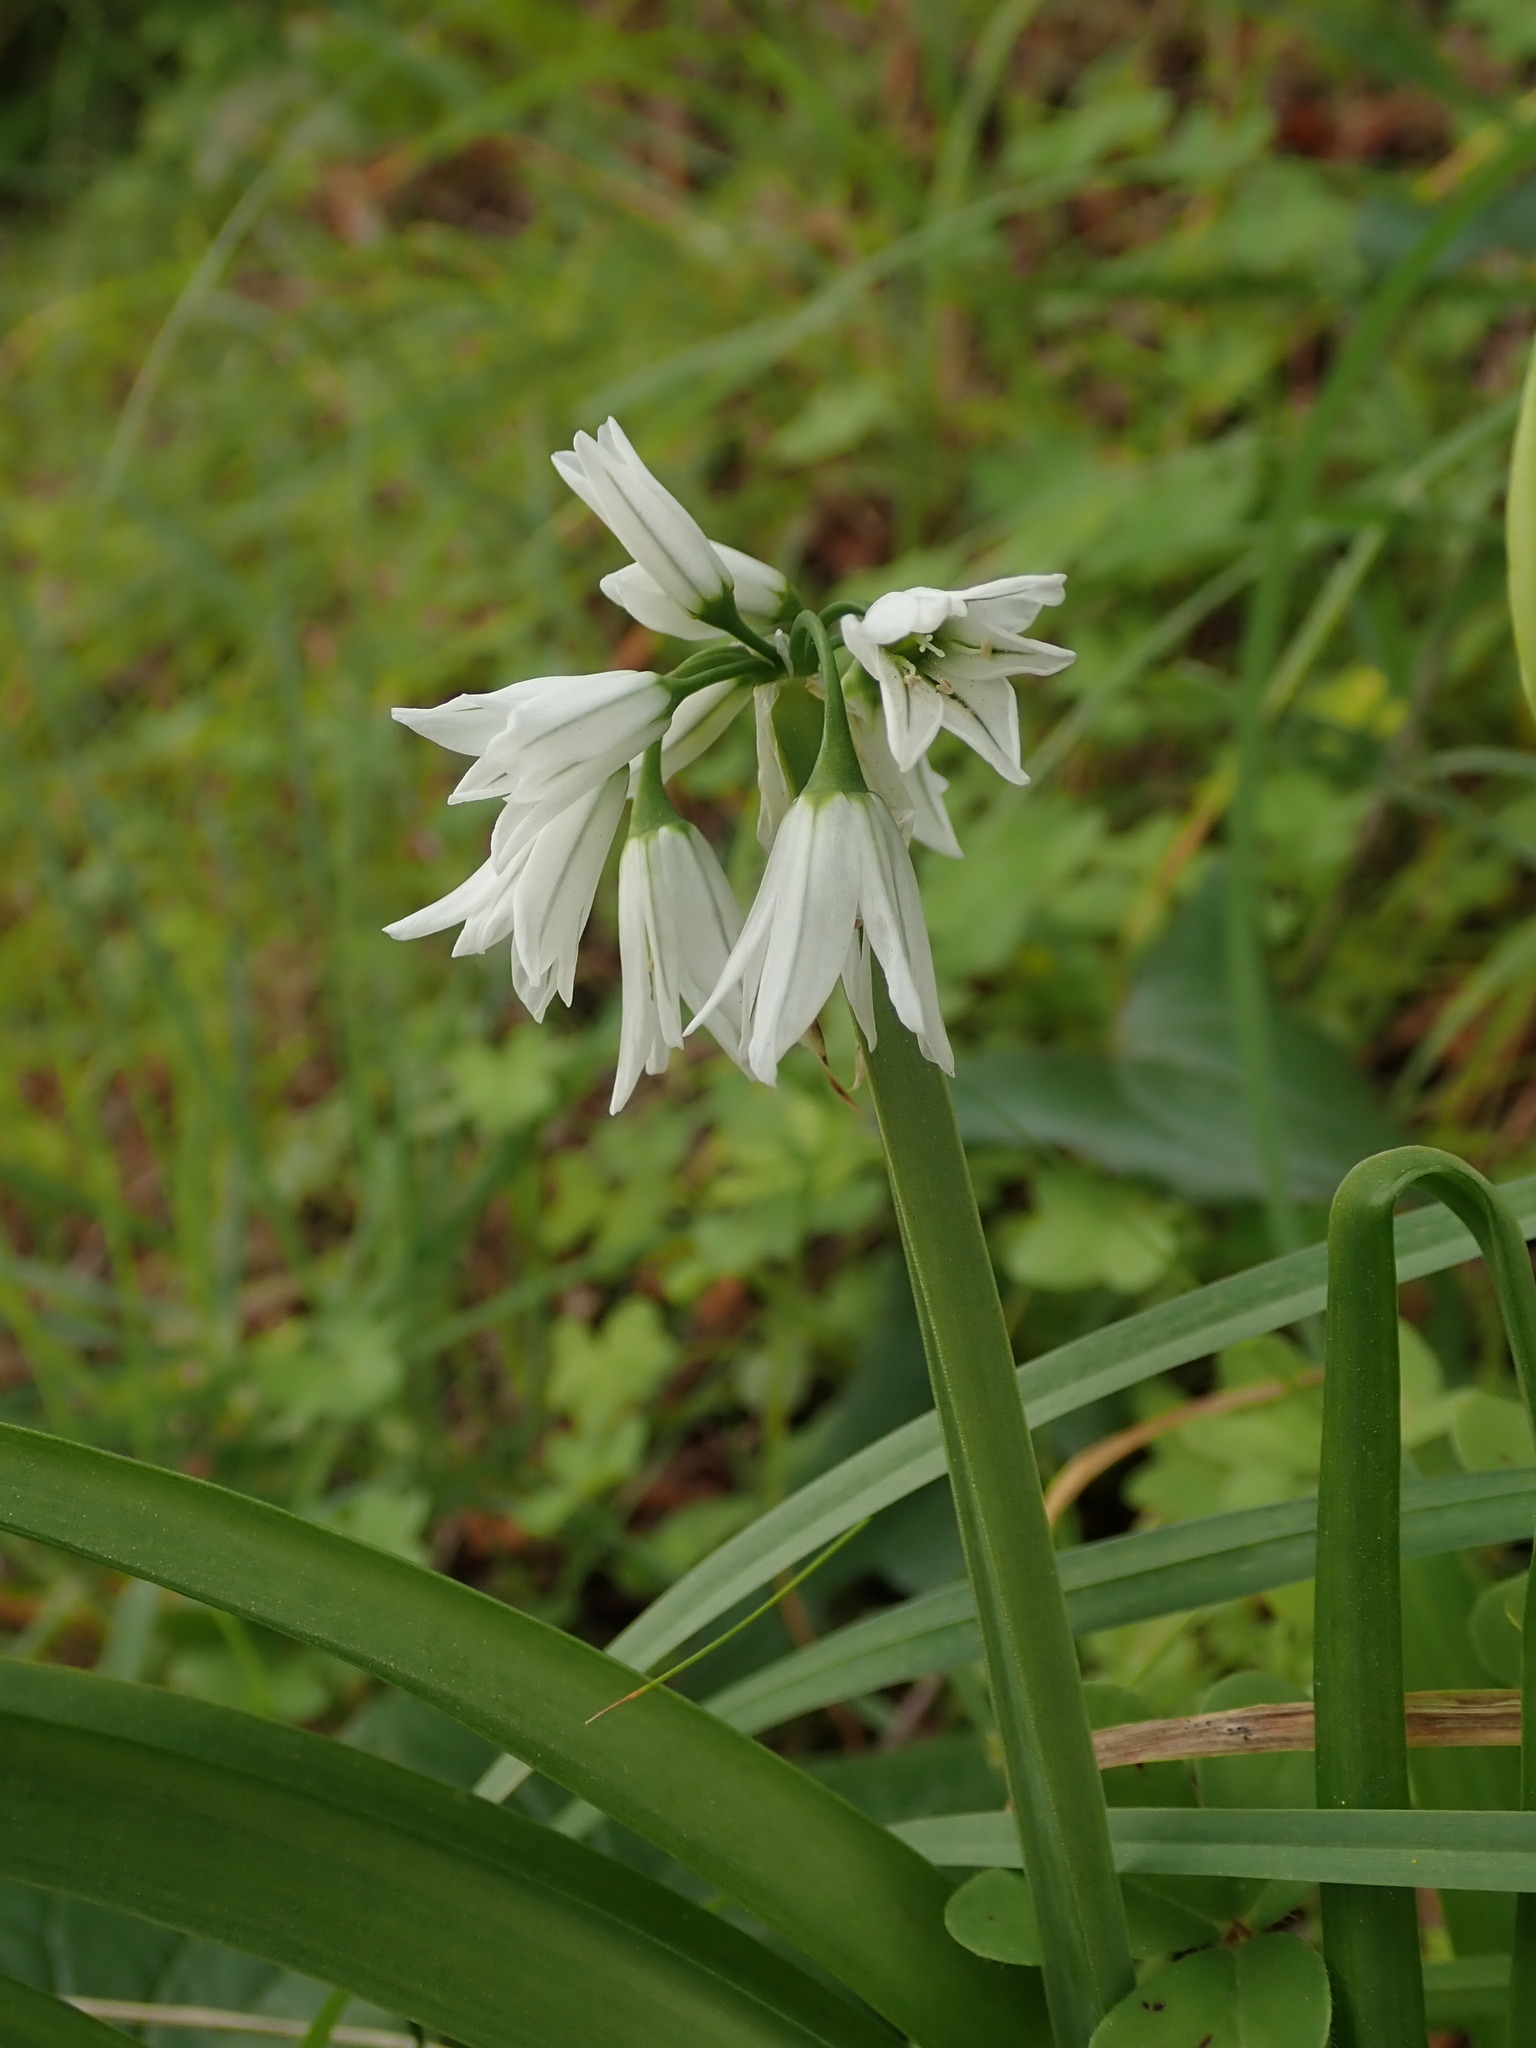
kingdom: Plantae
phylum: Tracheophyta
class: Liliopsida
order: Asparagales
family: Amaryllidaceae
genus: Allium
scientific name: Allium triquetrum
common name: Three-cornered garlic
